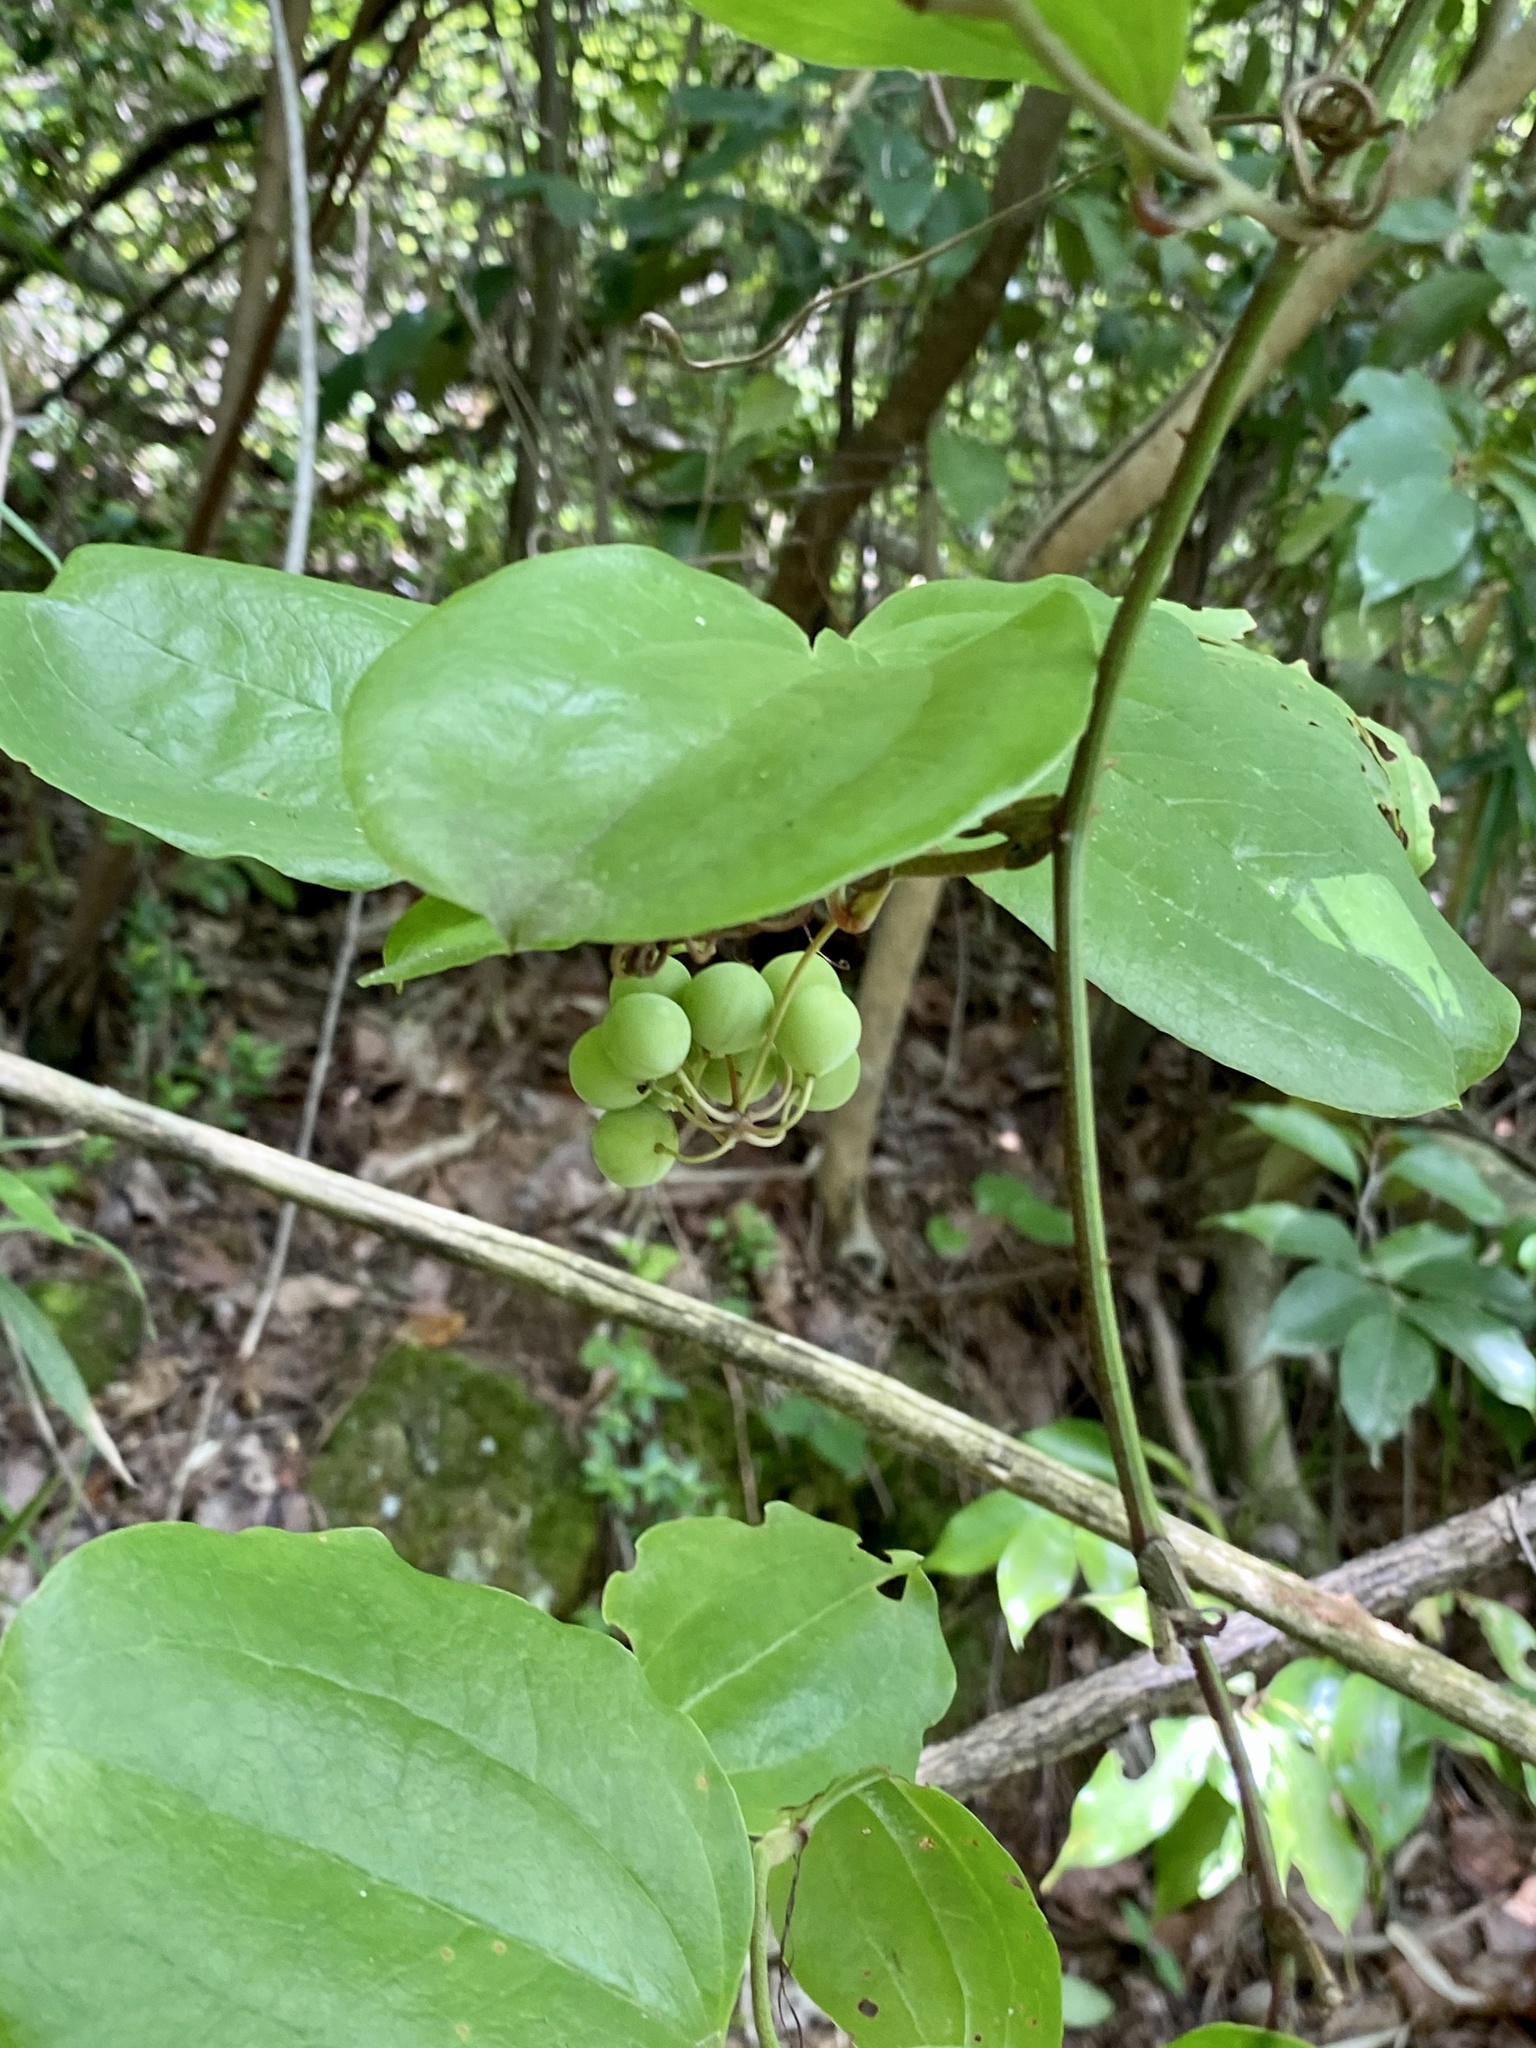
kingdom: Plantae
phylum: Tracheophyta
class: Liliopsida
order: Liliales
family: Smilacaceae
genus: Smilax
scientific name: Smilax china
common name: Chinaroot
